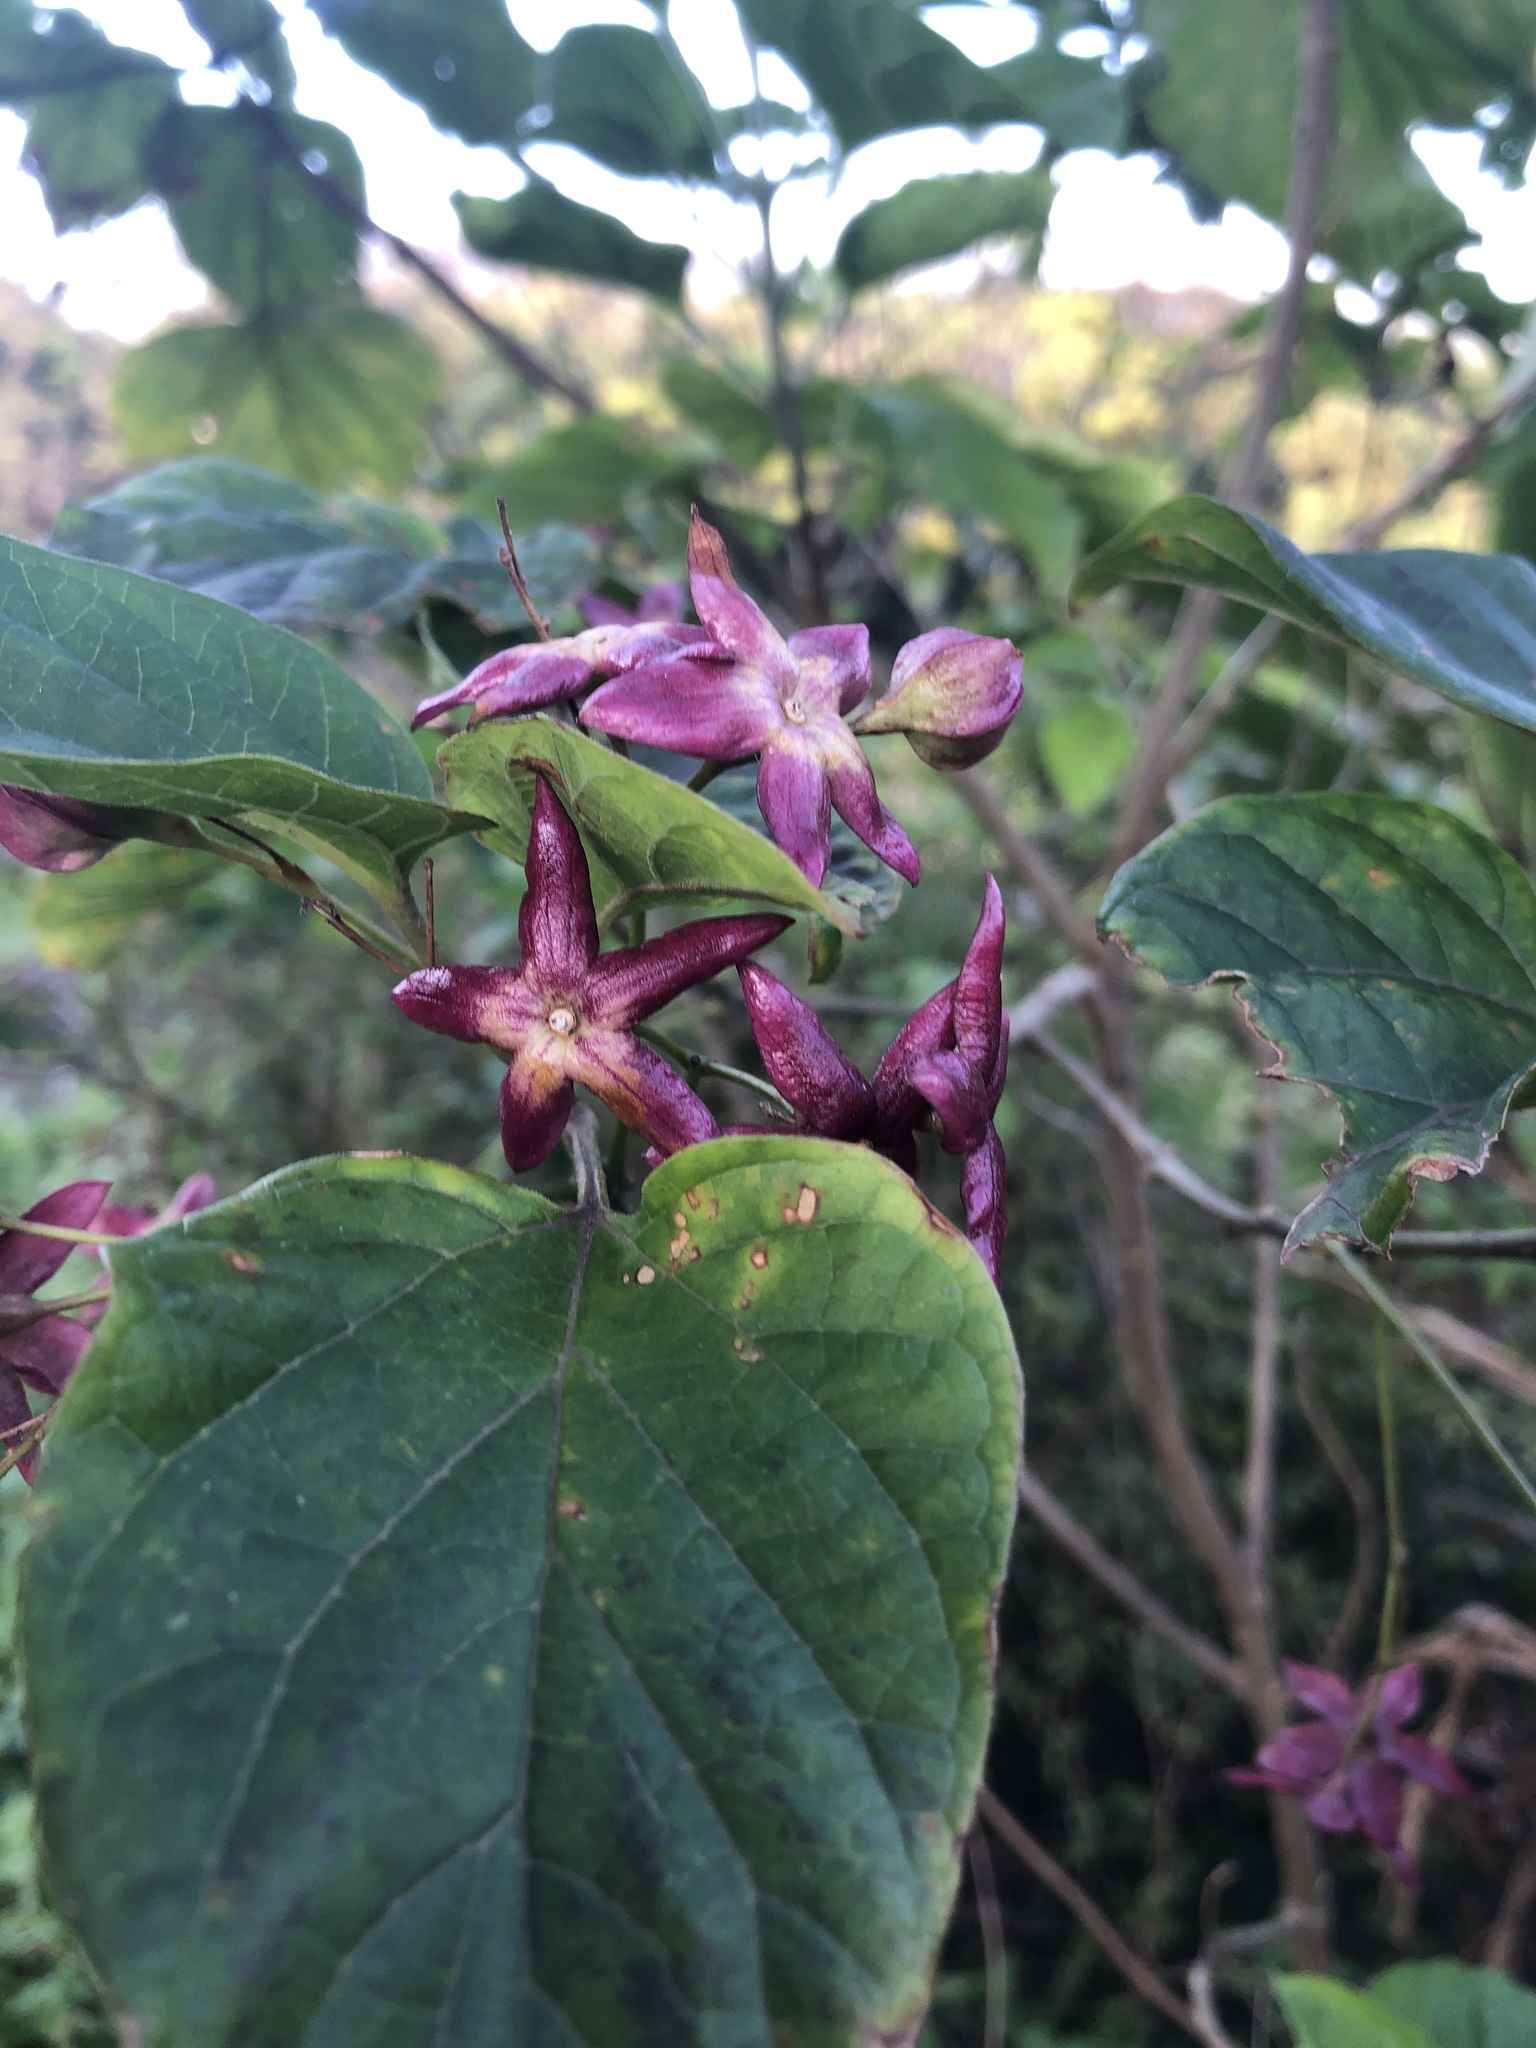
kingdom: Plantae
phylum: Tracheophyta
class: Magnoliopsida
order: Lamiales
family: Lamiaceae
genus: Clerodendrum
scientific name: Clerodendrum trichotomum
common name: Harlequin glorybower
